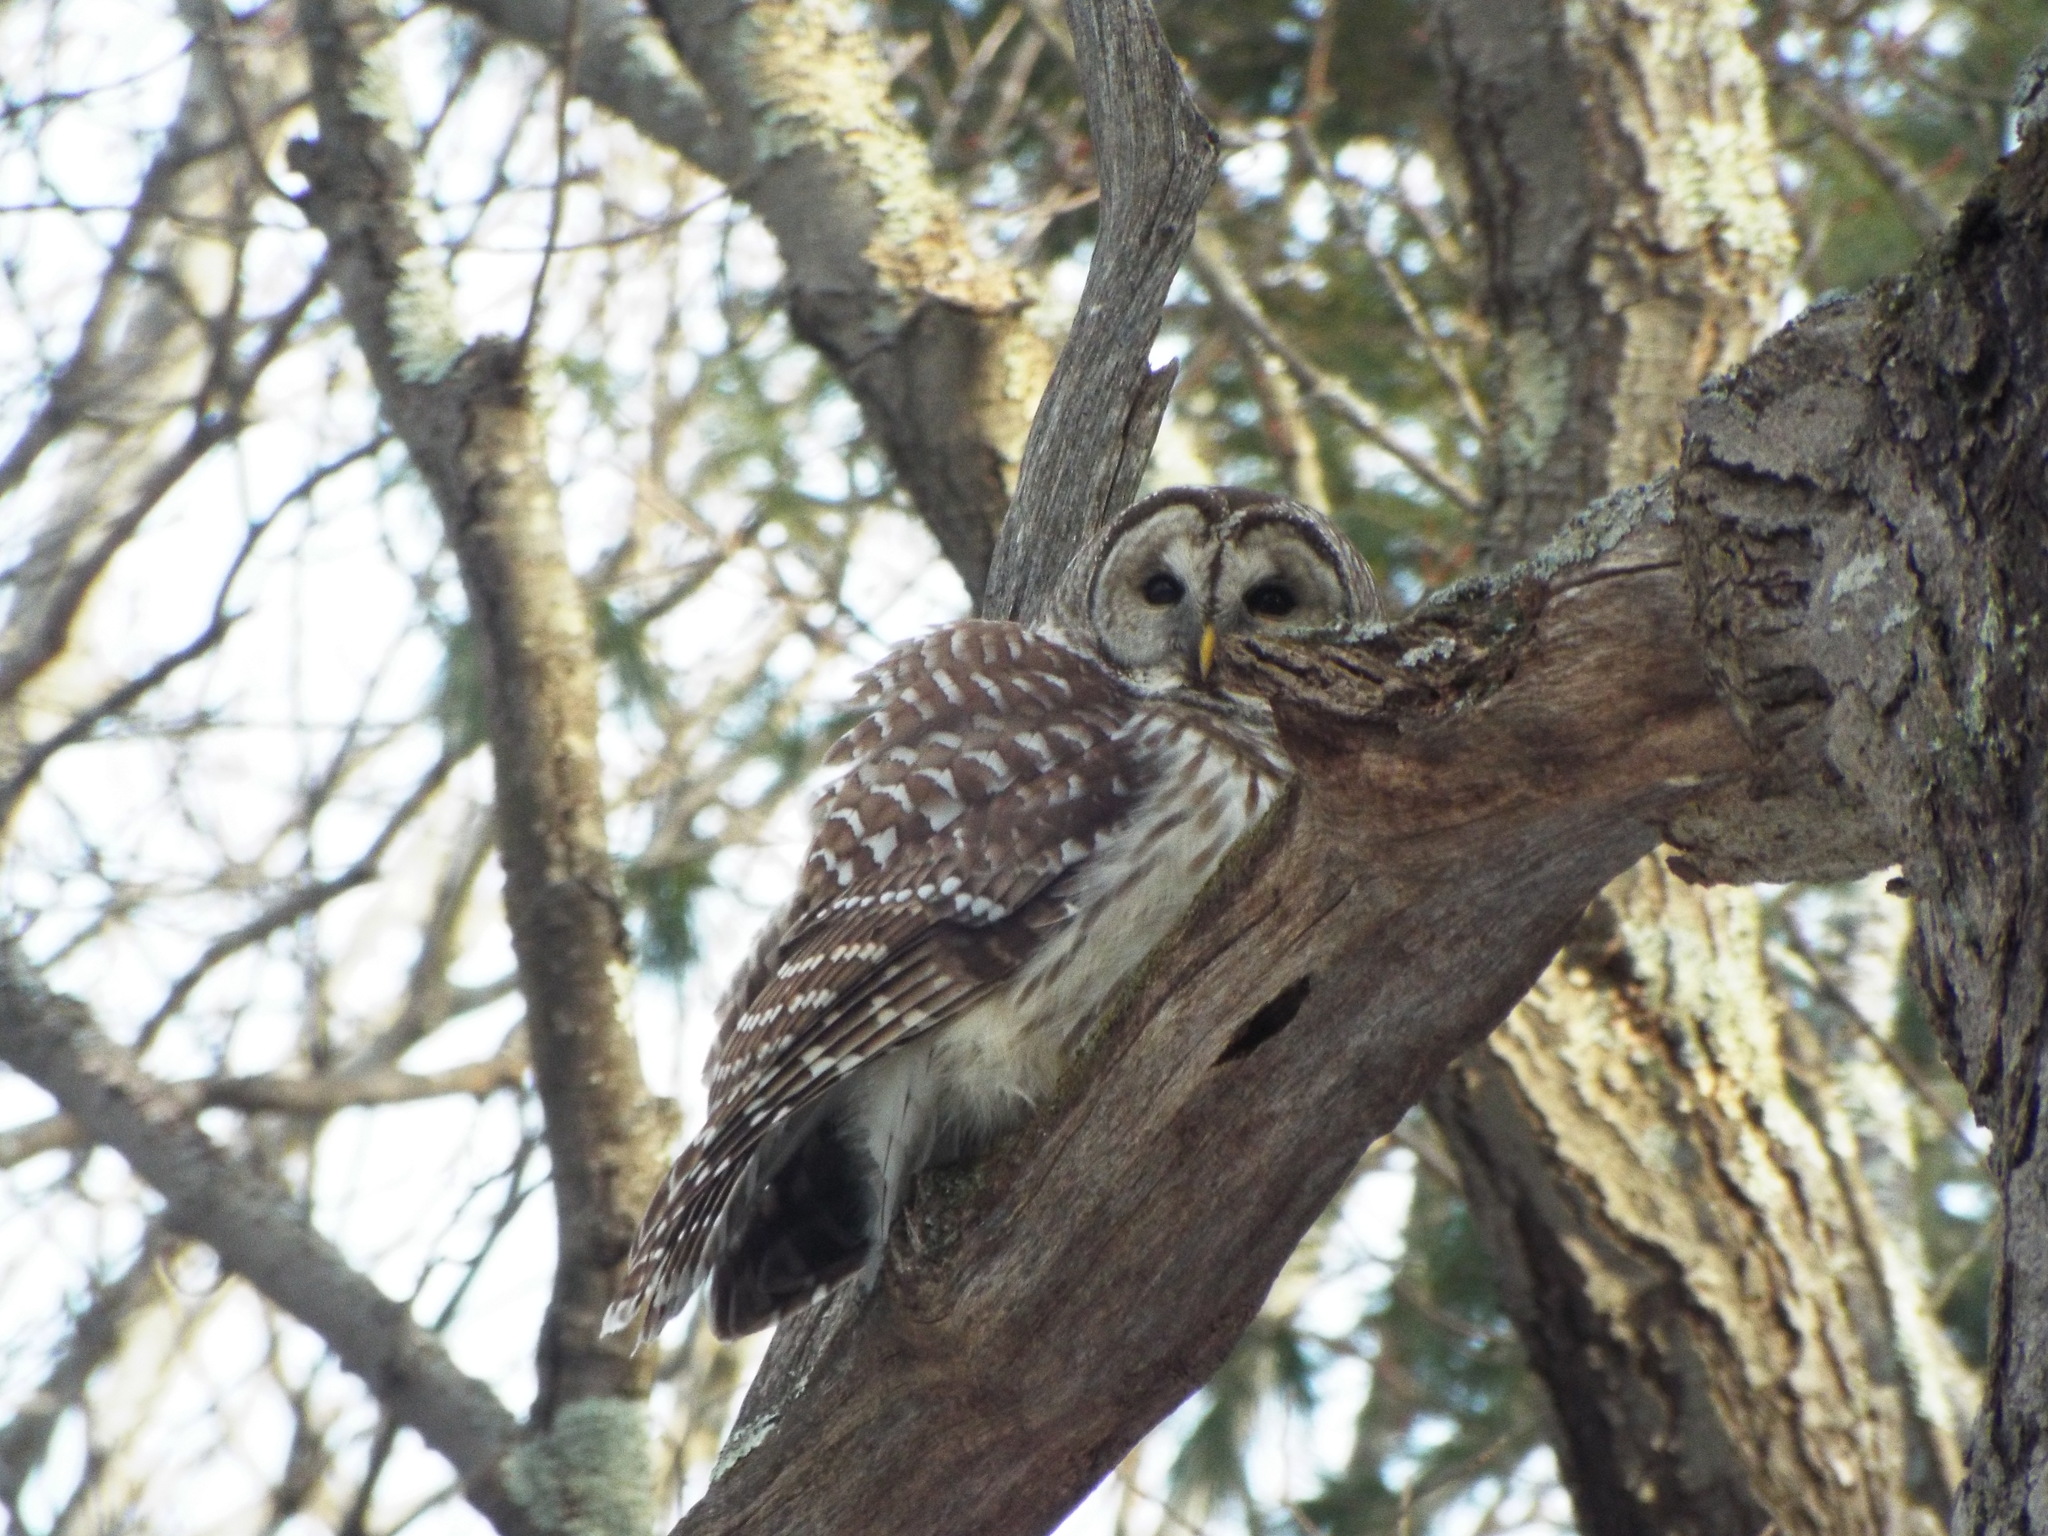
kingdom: Animalia
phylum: Chordata
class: Aves
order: Strigiformes
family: Strigidae
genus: Strix
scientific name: Strix varia
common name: Barred owl
